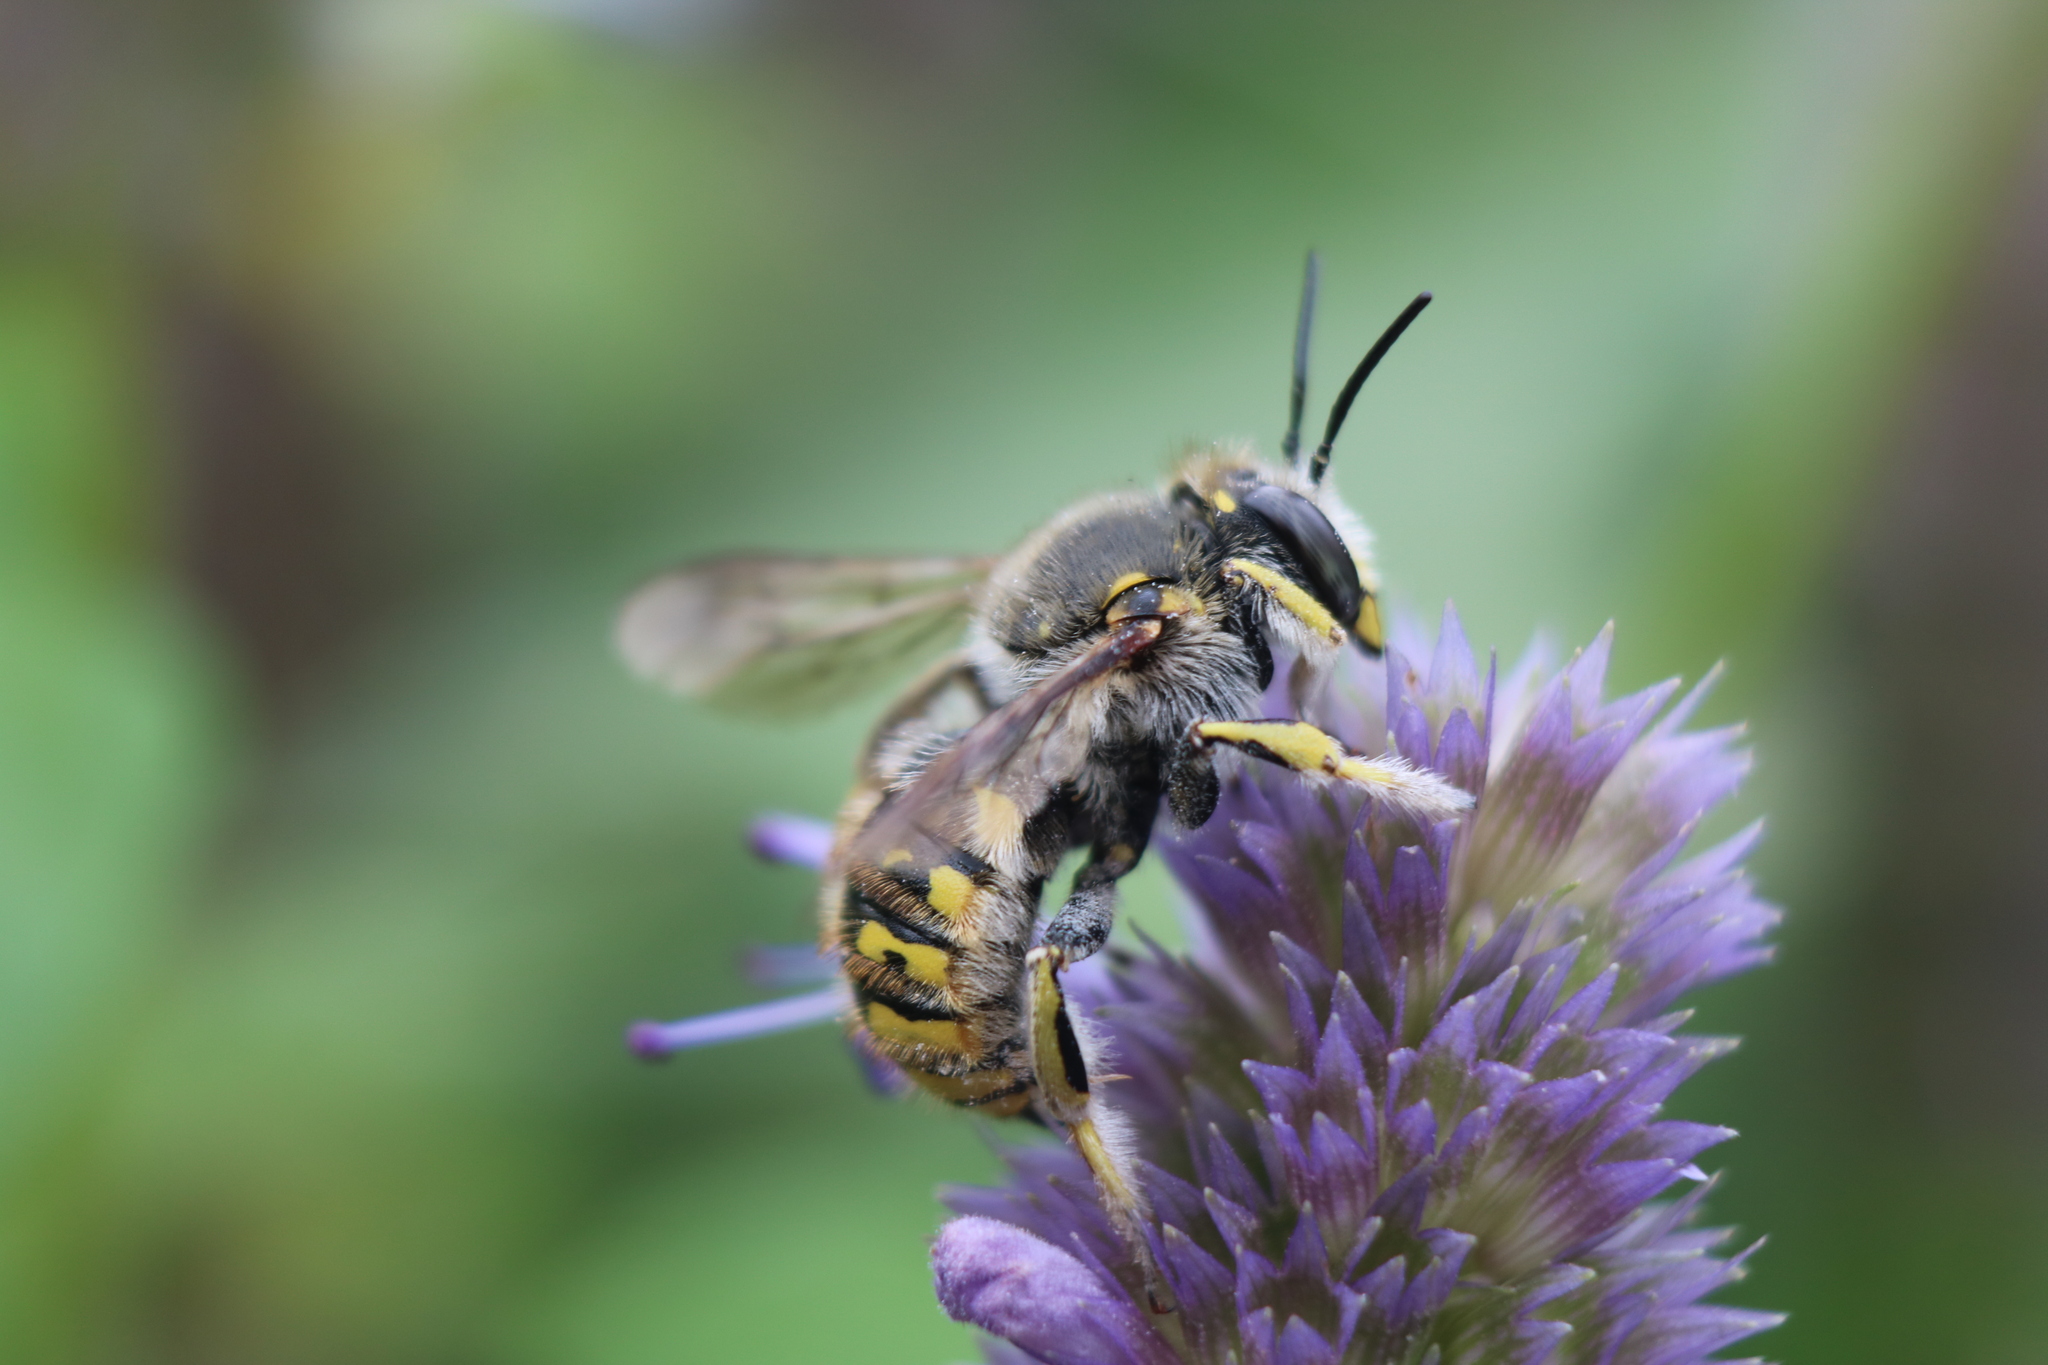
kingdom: Animalia
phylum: Arthropoda
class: Insecta
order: Hymenoptera
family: Megachilidae
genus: Anthidium
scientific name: Anthidium manicatum
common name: Wool carder bee
